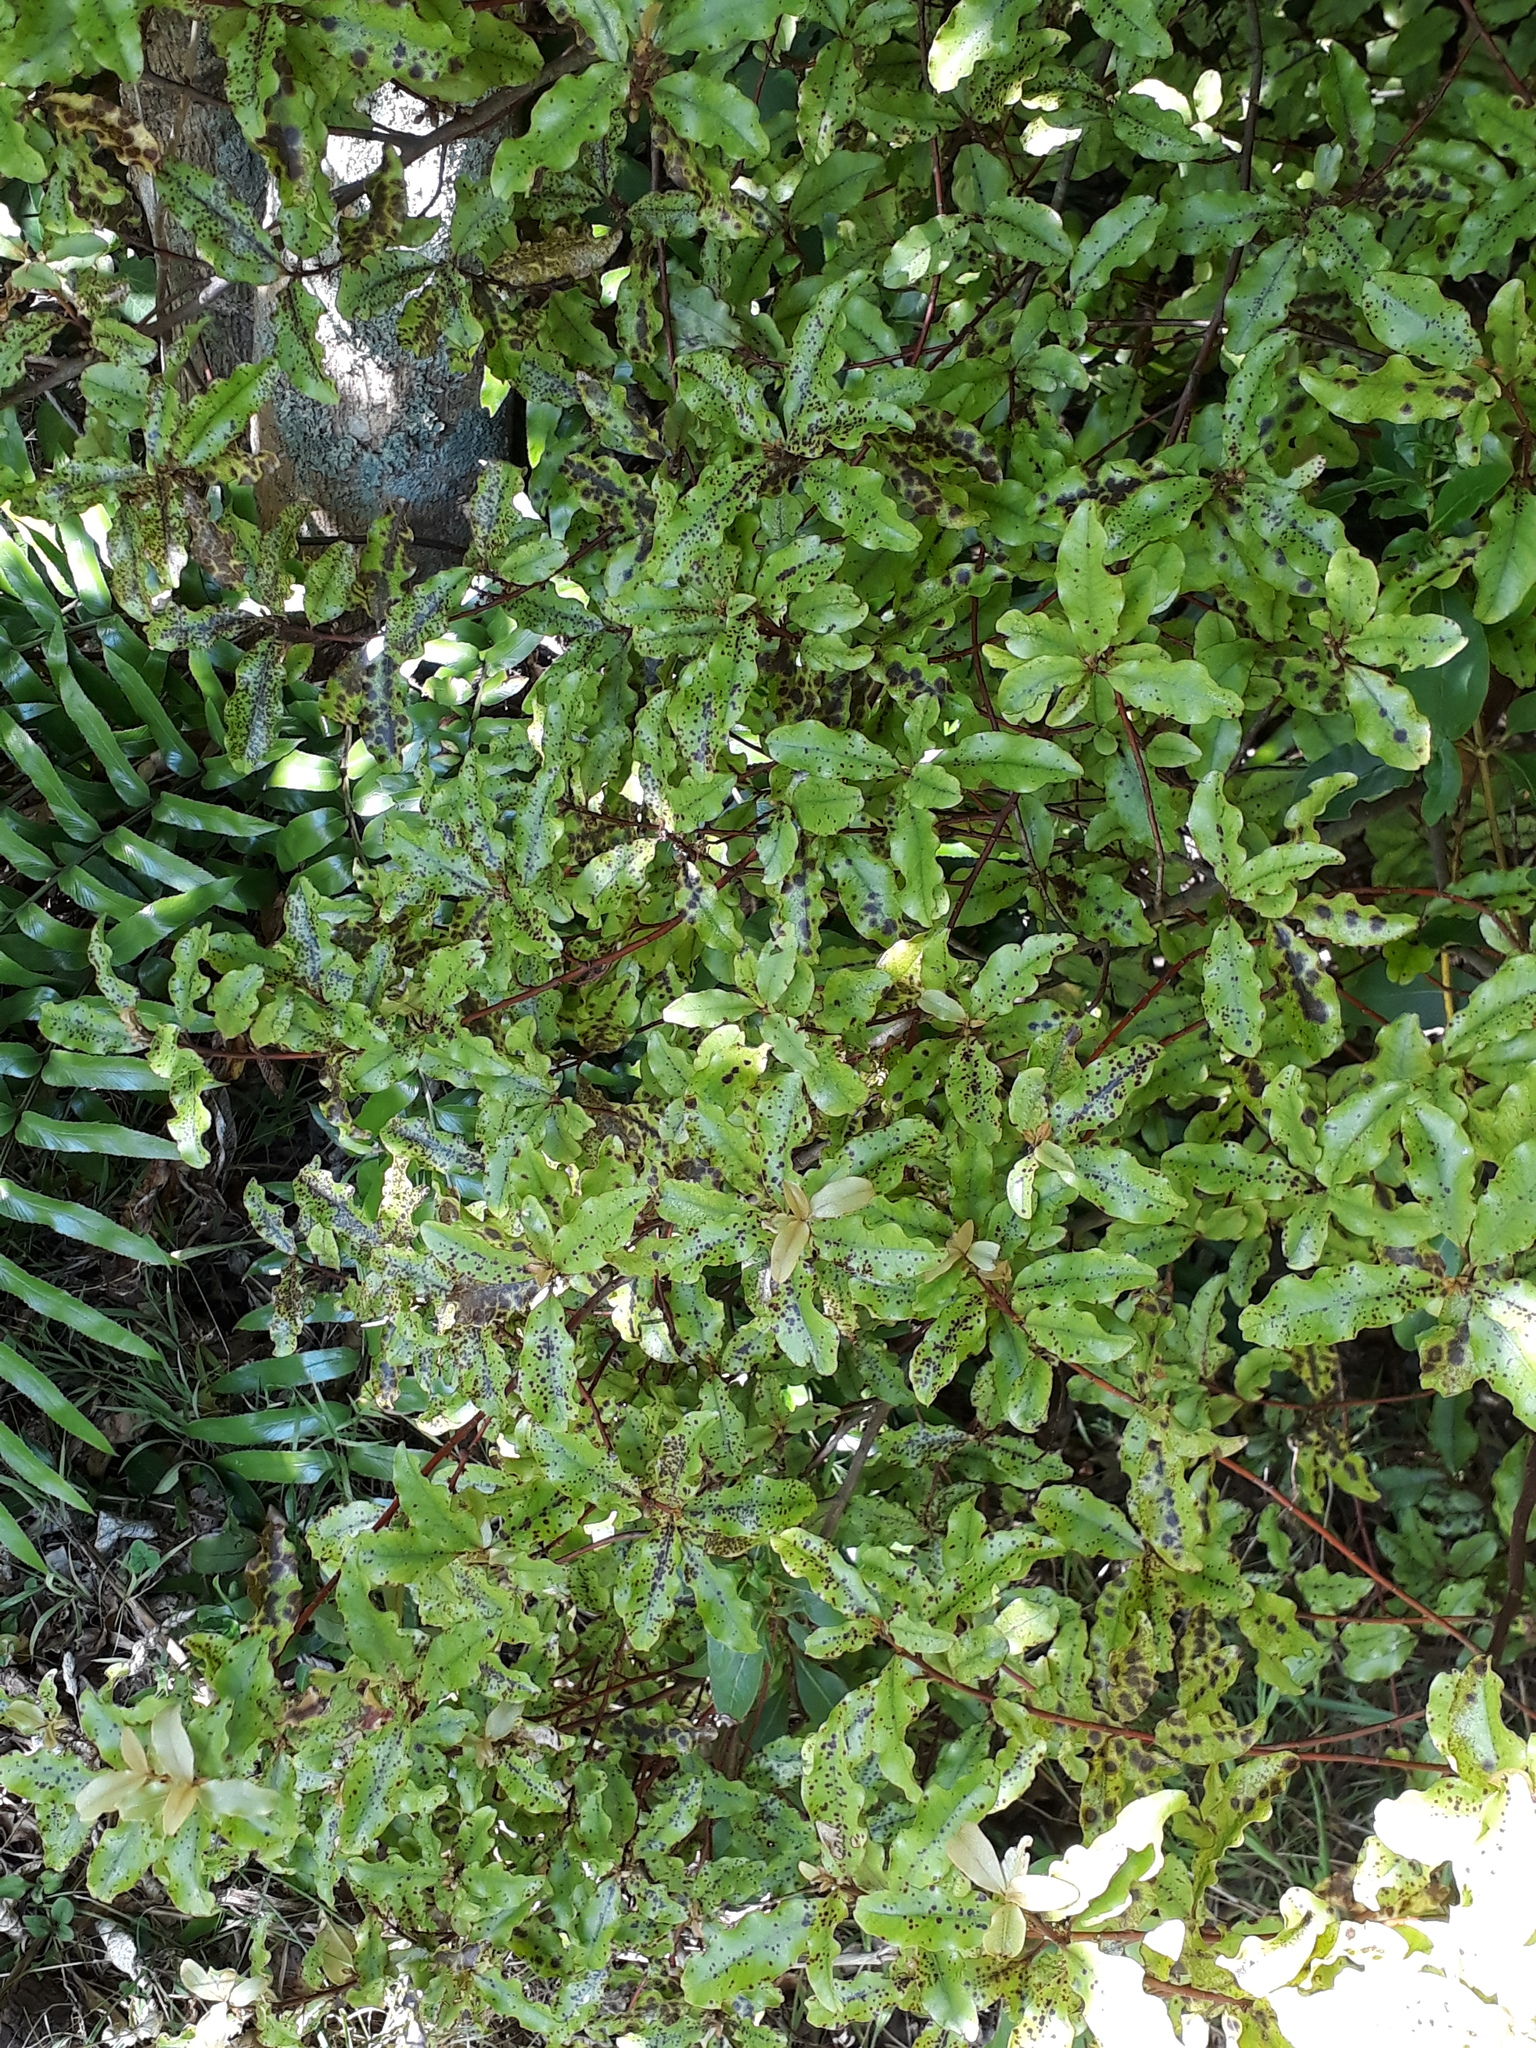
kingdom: Plantae
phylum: Tracheophyta
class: Magnoliopsida
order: Ericales
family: Primulaceae
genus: Myrsine
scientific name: Myrsine australis
